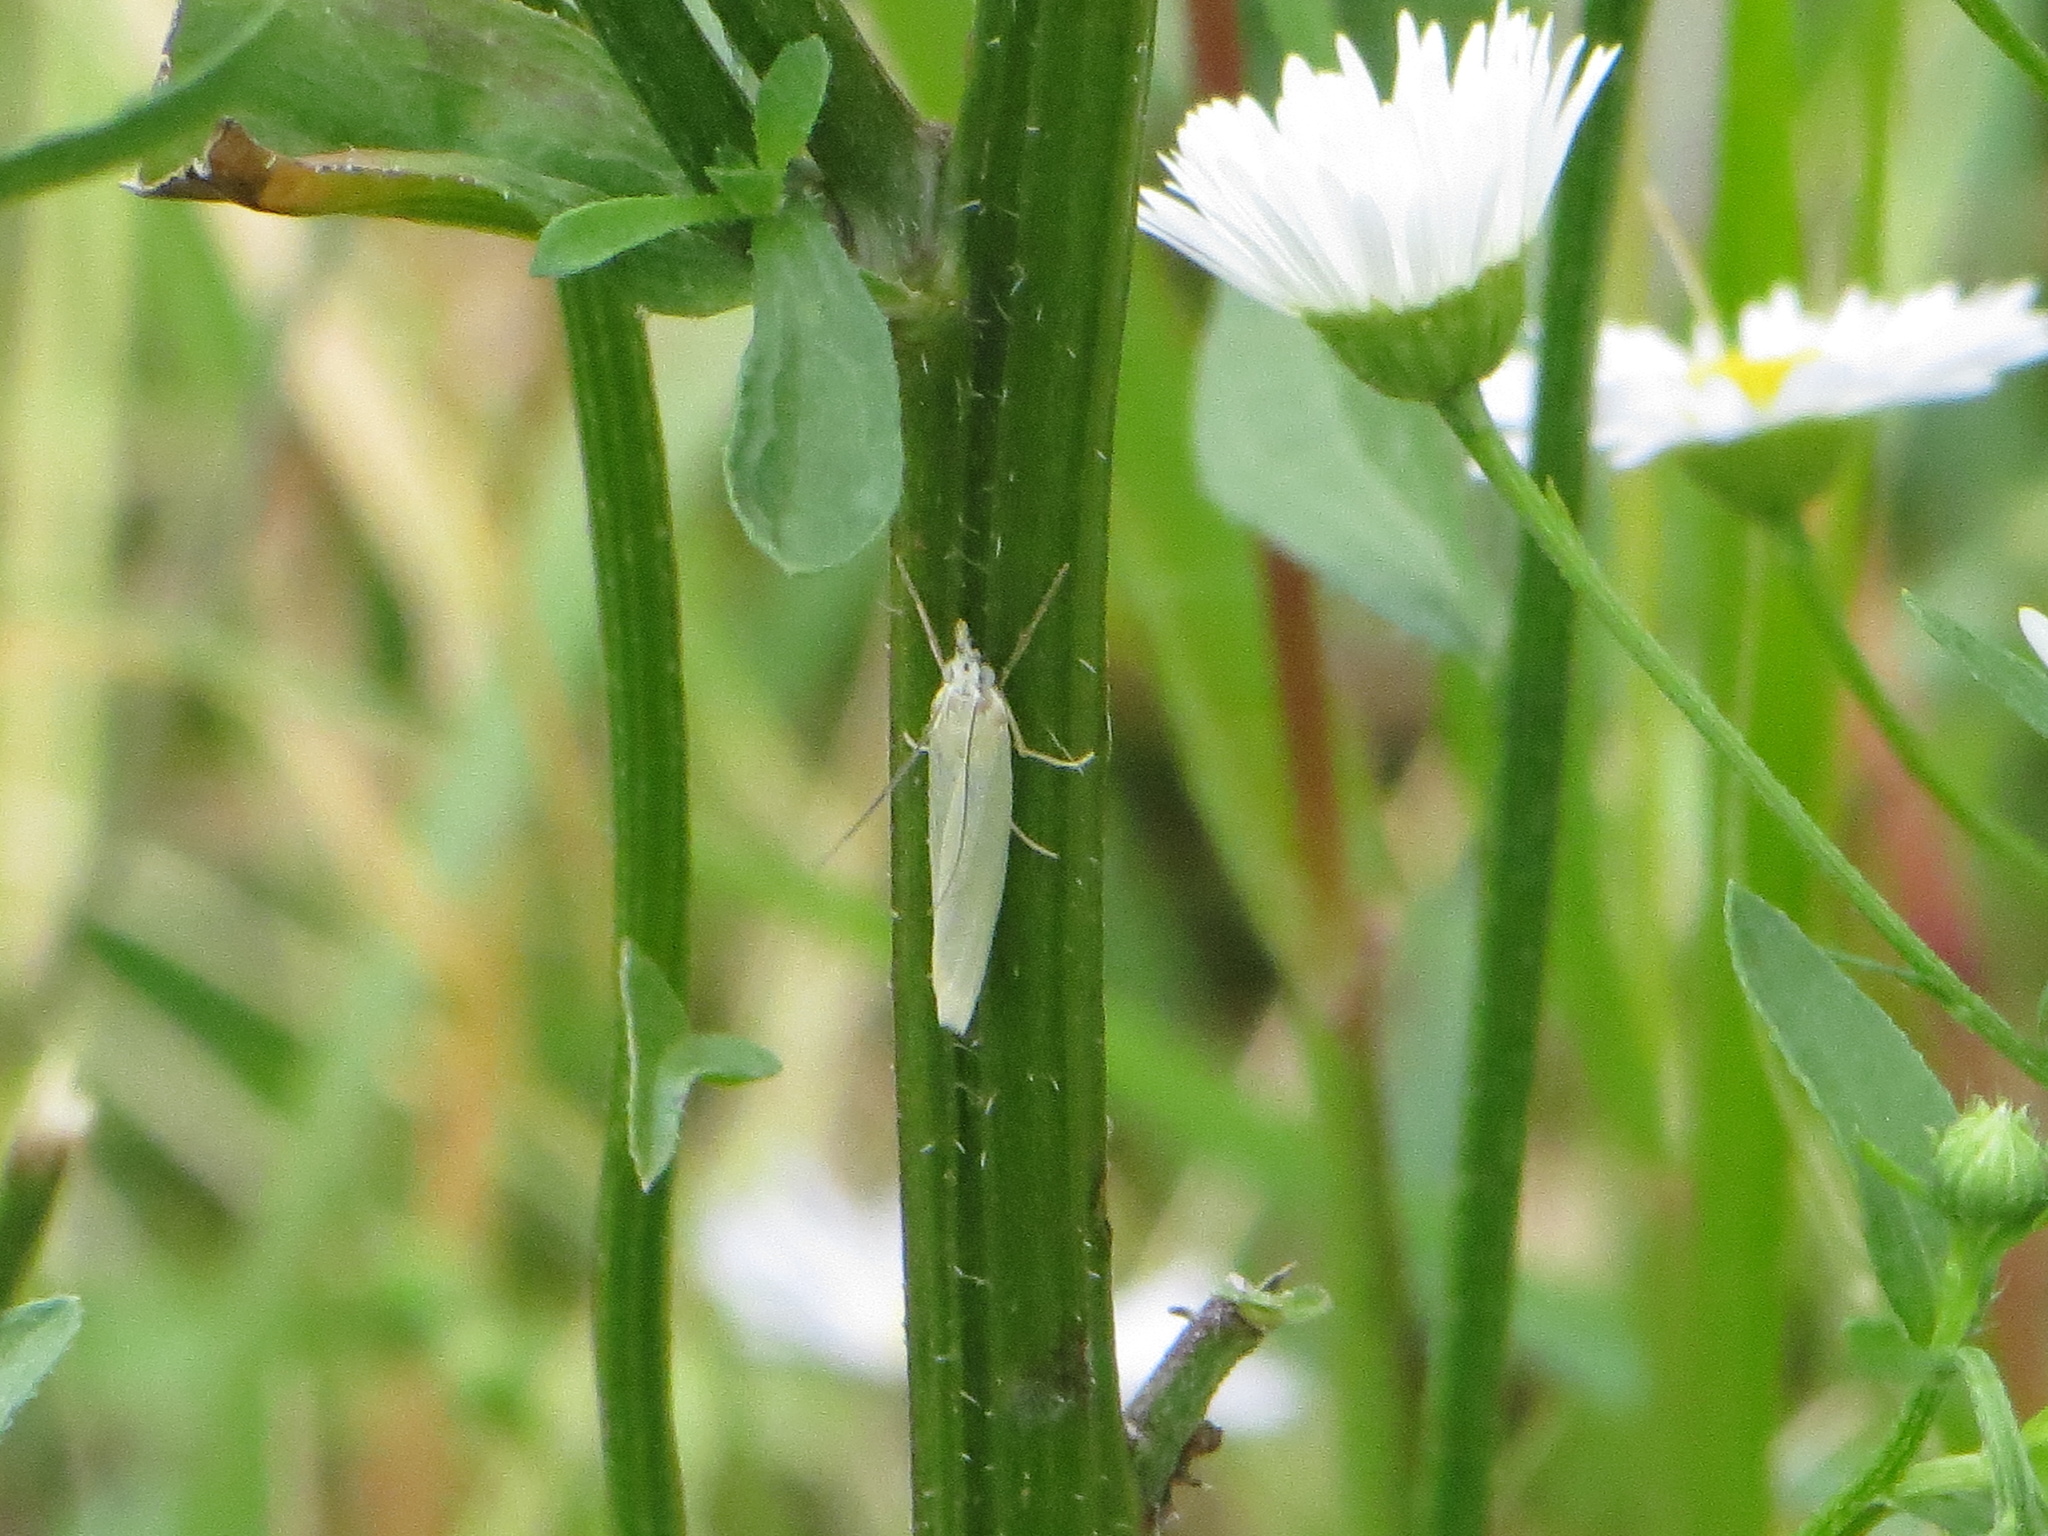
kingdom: Animalia
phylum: Arthropoda
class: Insecta
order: Lepidoptera
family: Crambidae
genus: Crambus
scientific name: Crambus perlellus
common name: Yellow satin veneer
